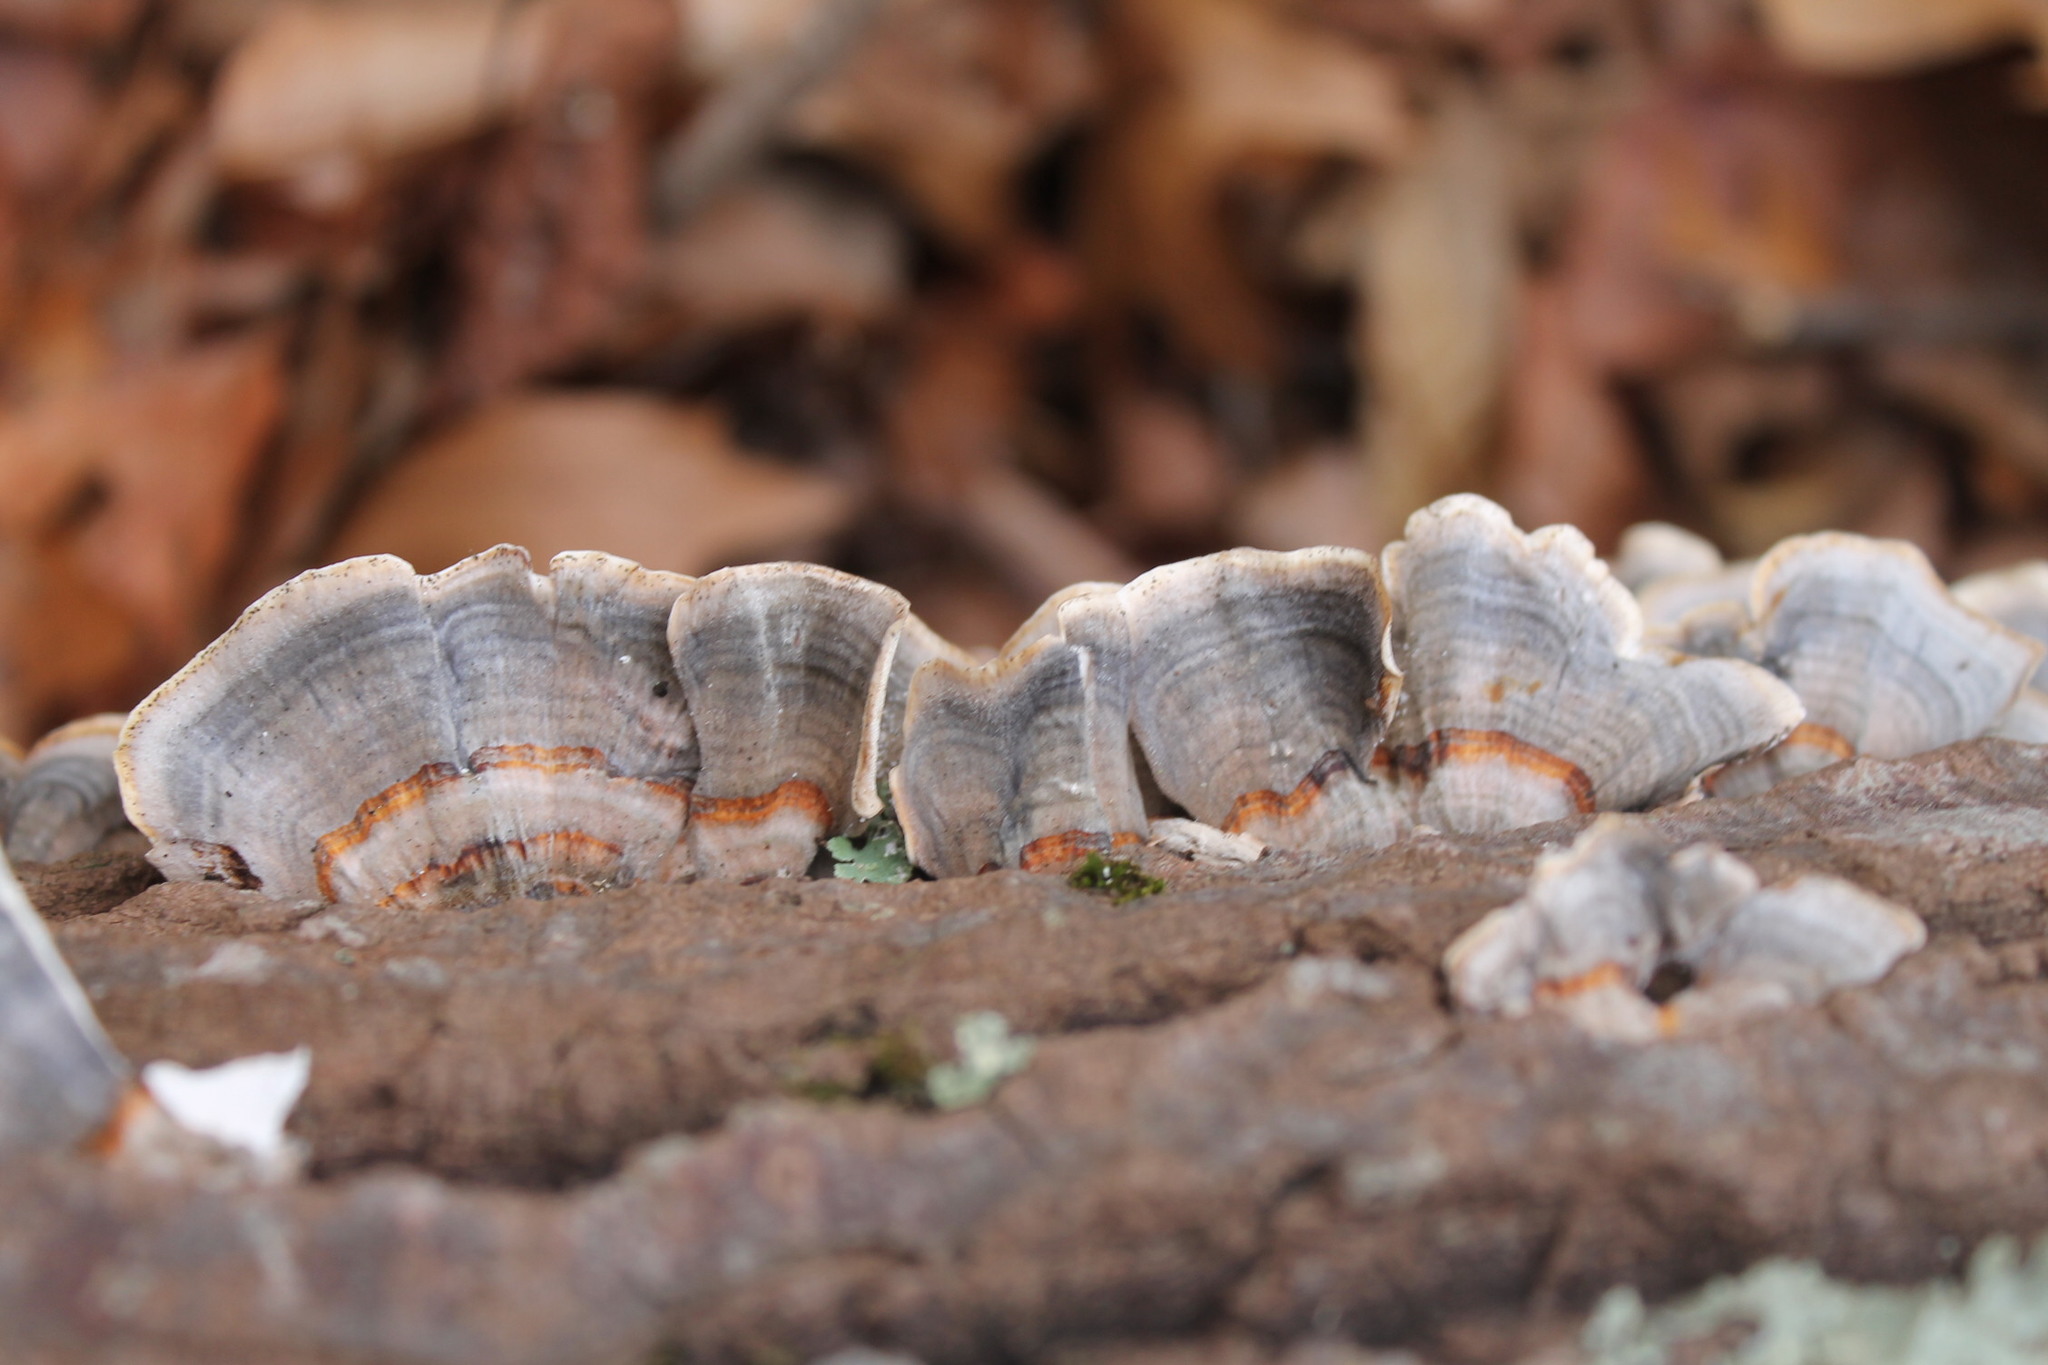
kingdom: Fungi
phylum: Basidiomycota
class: Agaricomycetes
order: Polyporales
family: Polyporaceae
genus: Trametes
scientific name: Trametes versicolor
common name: Turkeytail
